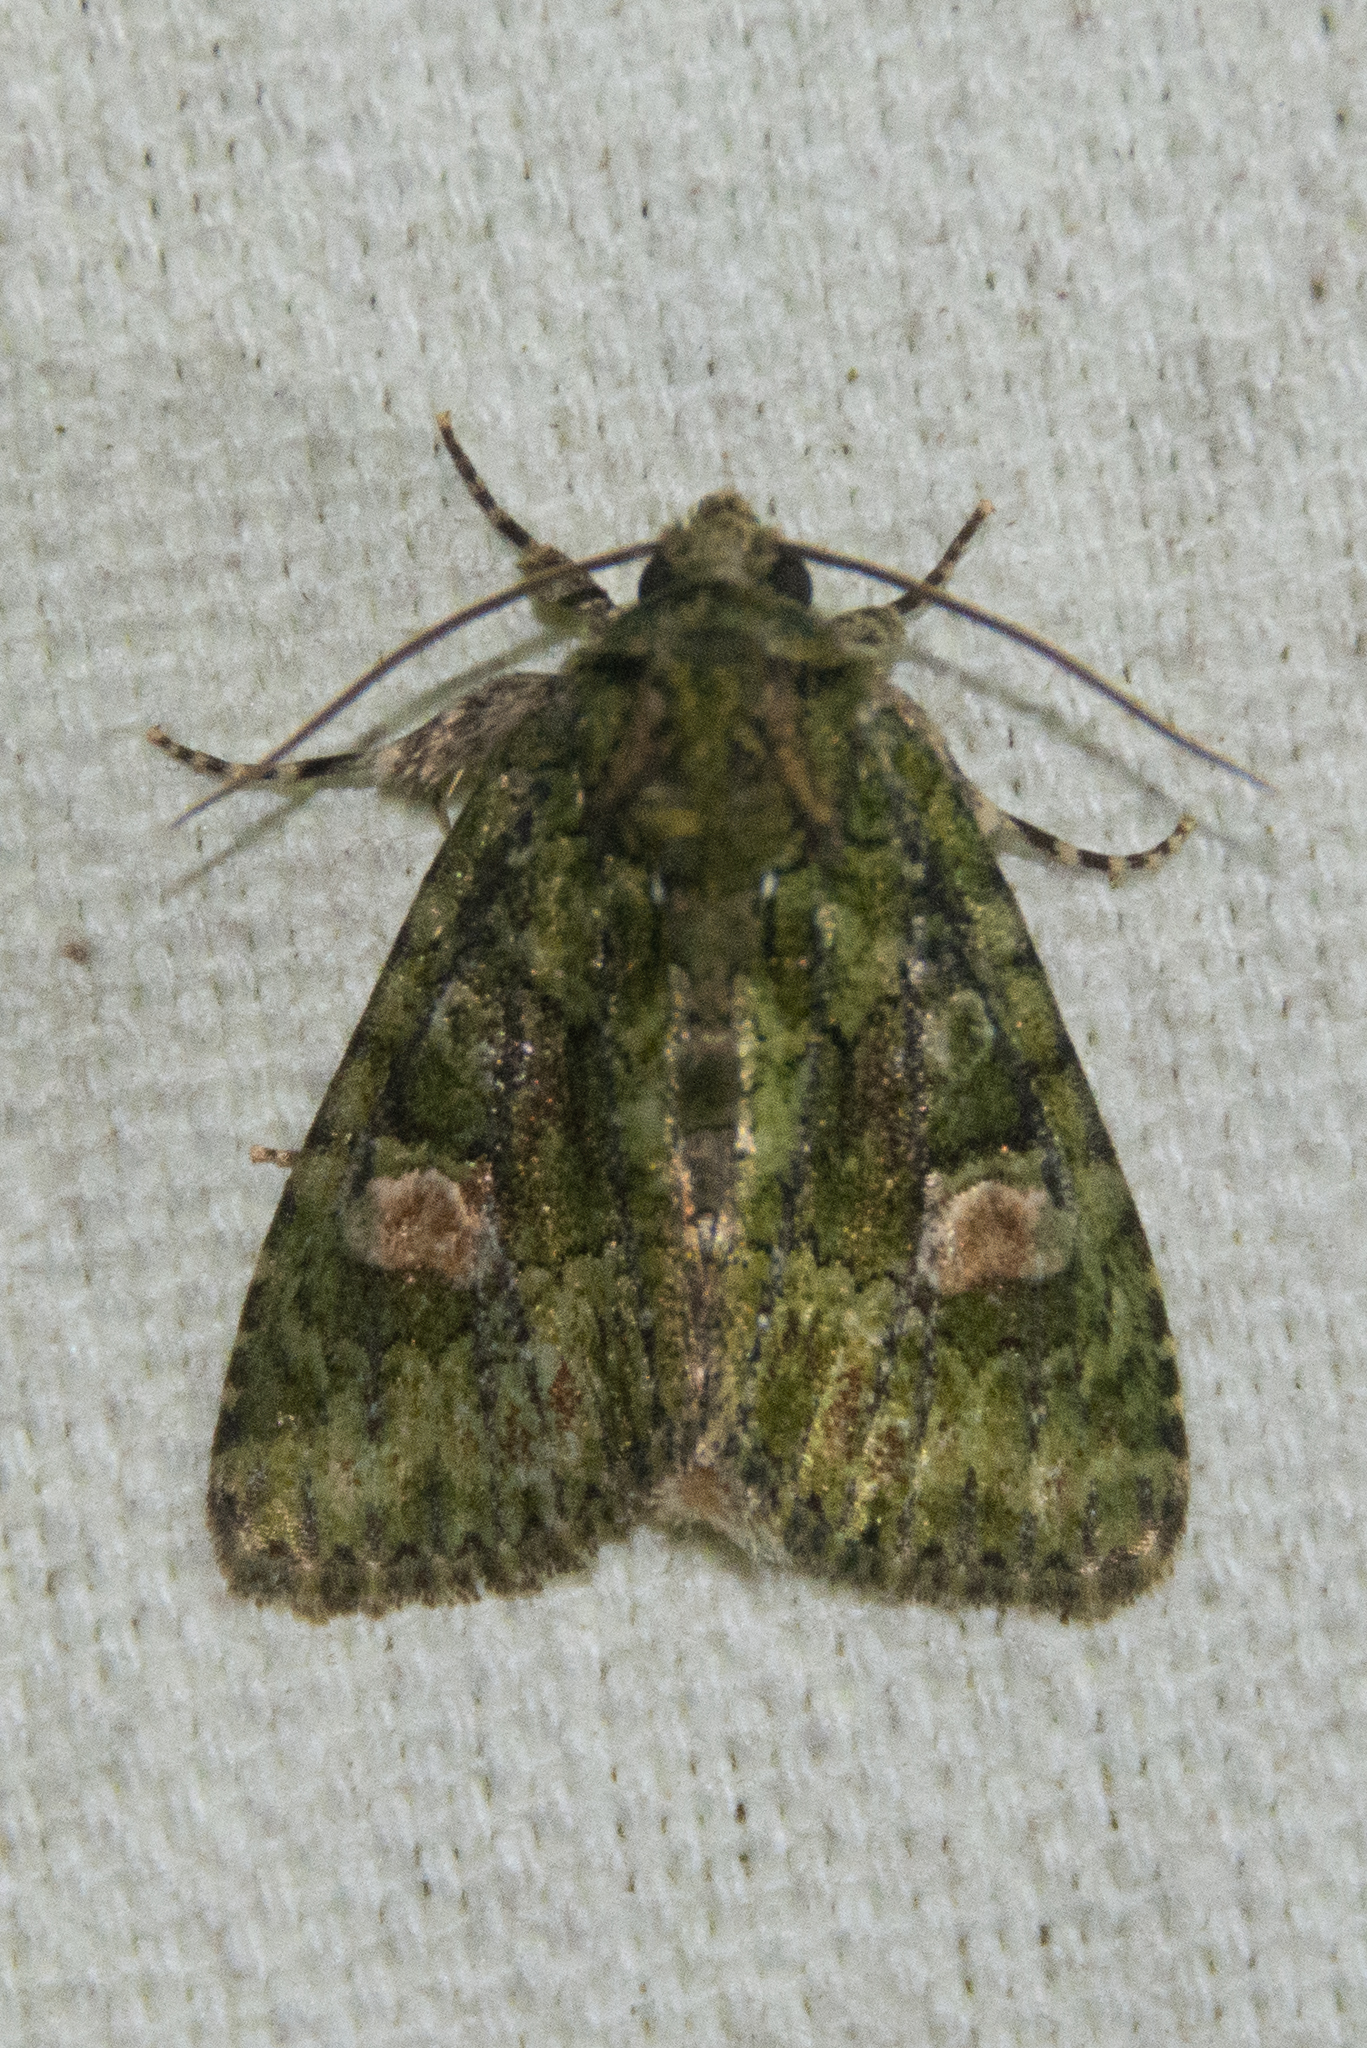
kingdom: Animalia
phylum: Arthropoda
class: Insecta
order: Lepidoptera
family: Noctuidae
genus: Phosphila
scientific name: Phosphila miselioides
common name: Spotted phosphila moth
